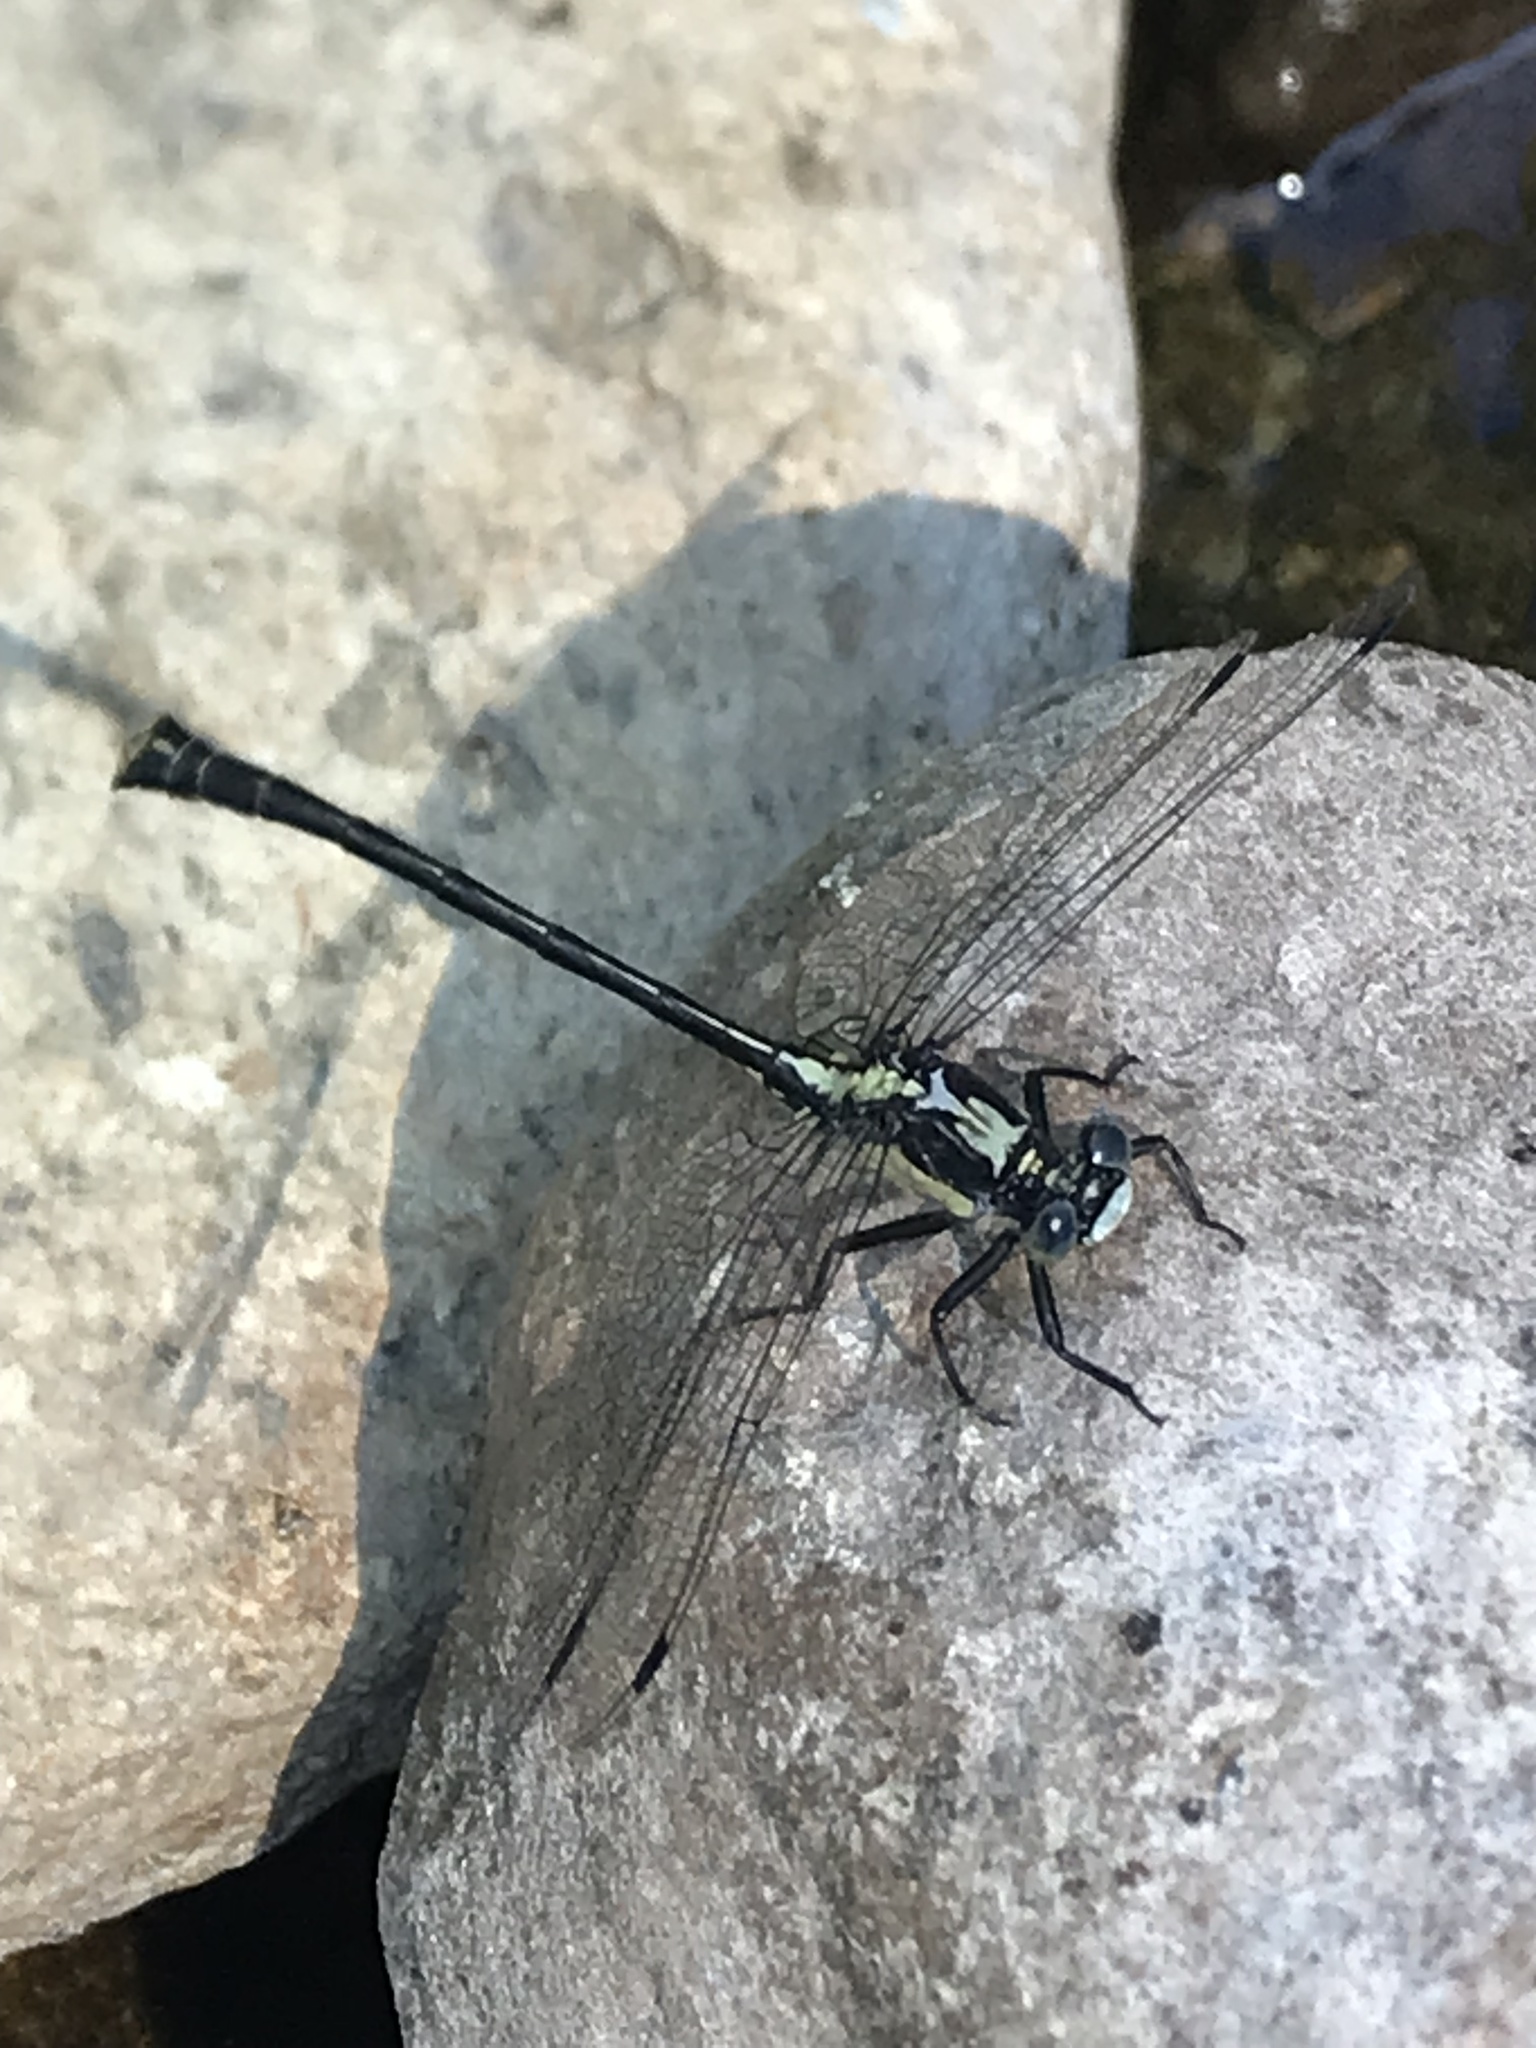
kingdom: Animalia
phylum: Arthropoda
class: Insecta
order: Odonata
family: Gomphidae
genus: Octogomphus
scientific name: Octogomphus specularis
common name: Grappletail
